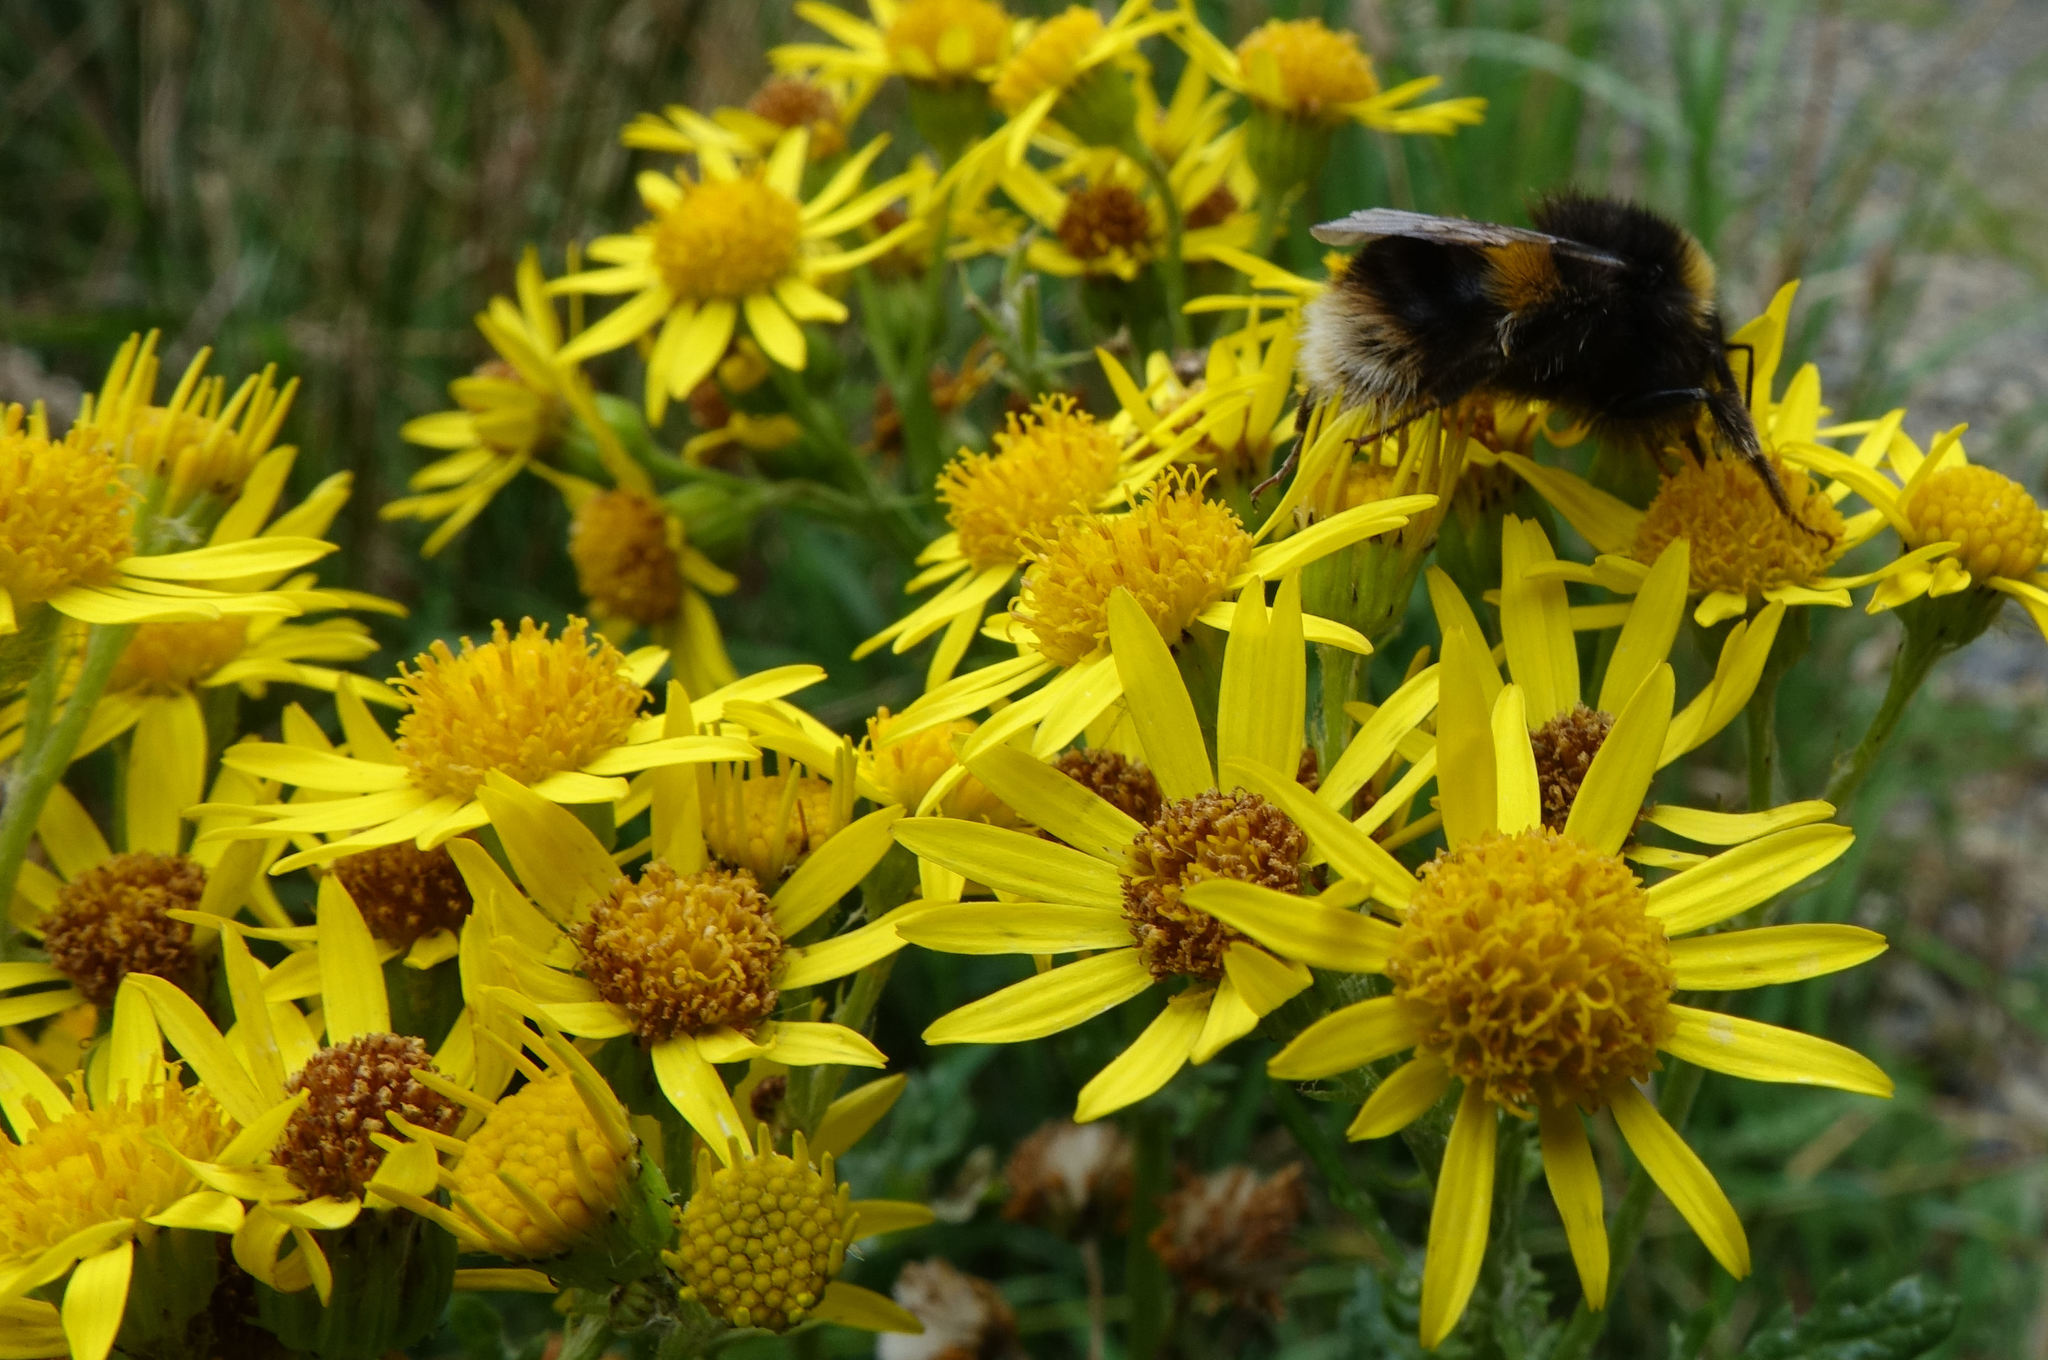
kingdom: Animalia
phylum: Arthropoda
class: Insecta
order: Hymenoptera
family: Apidae
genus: Bombus
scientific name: Bombus terrestris
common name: Buff-tailed bumblebee
